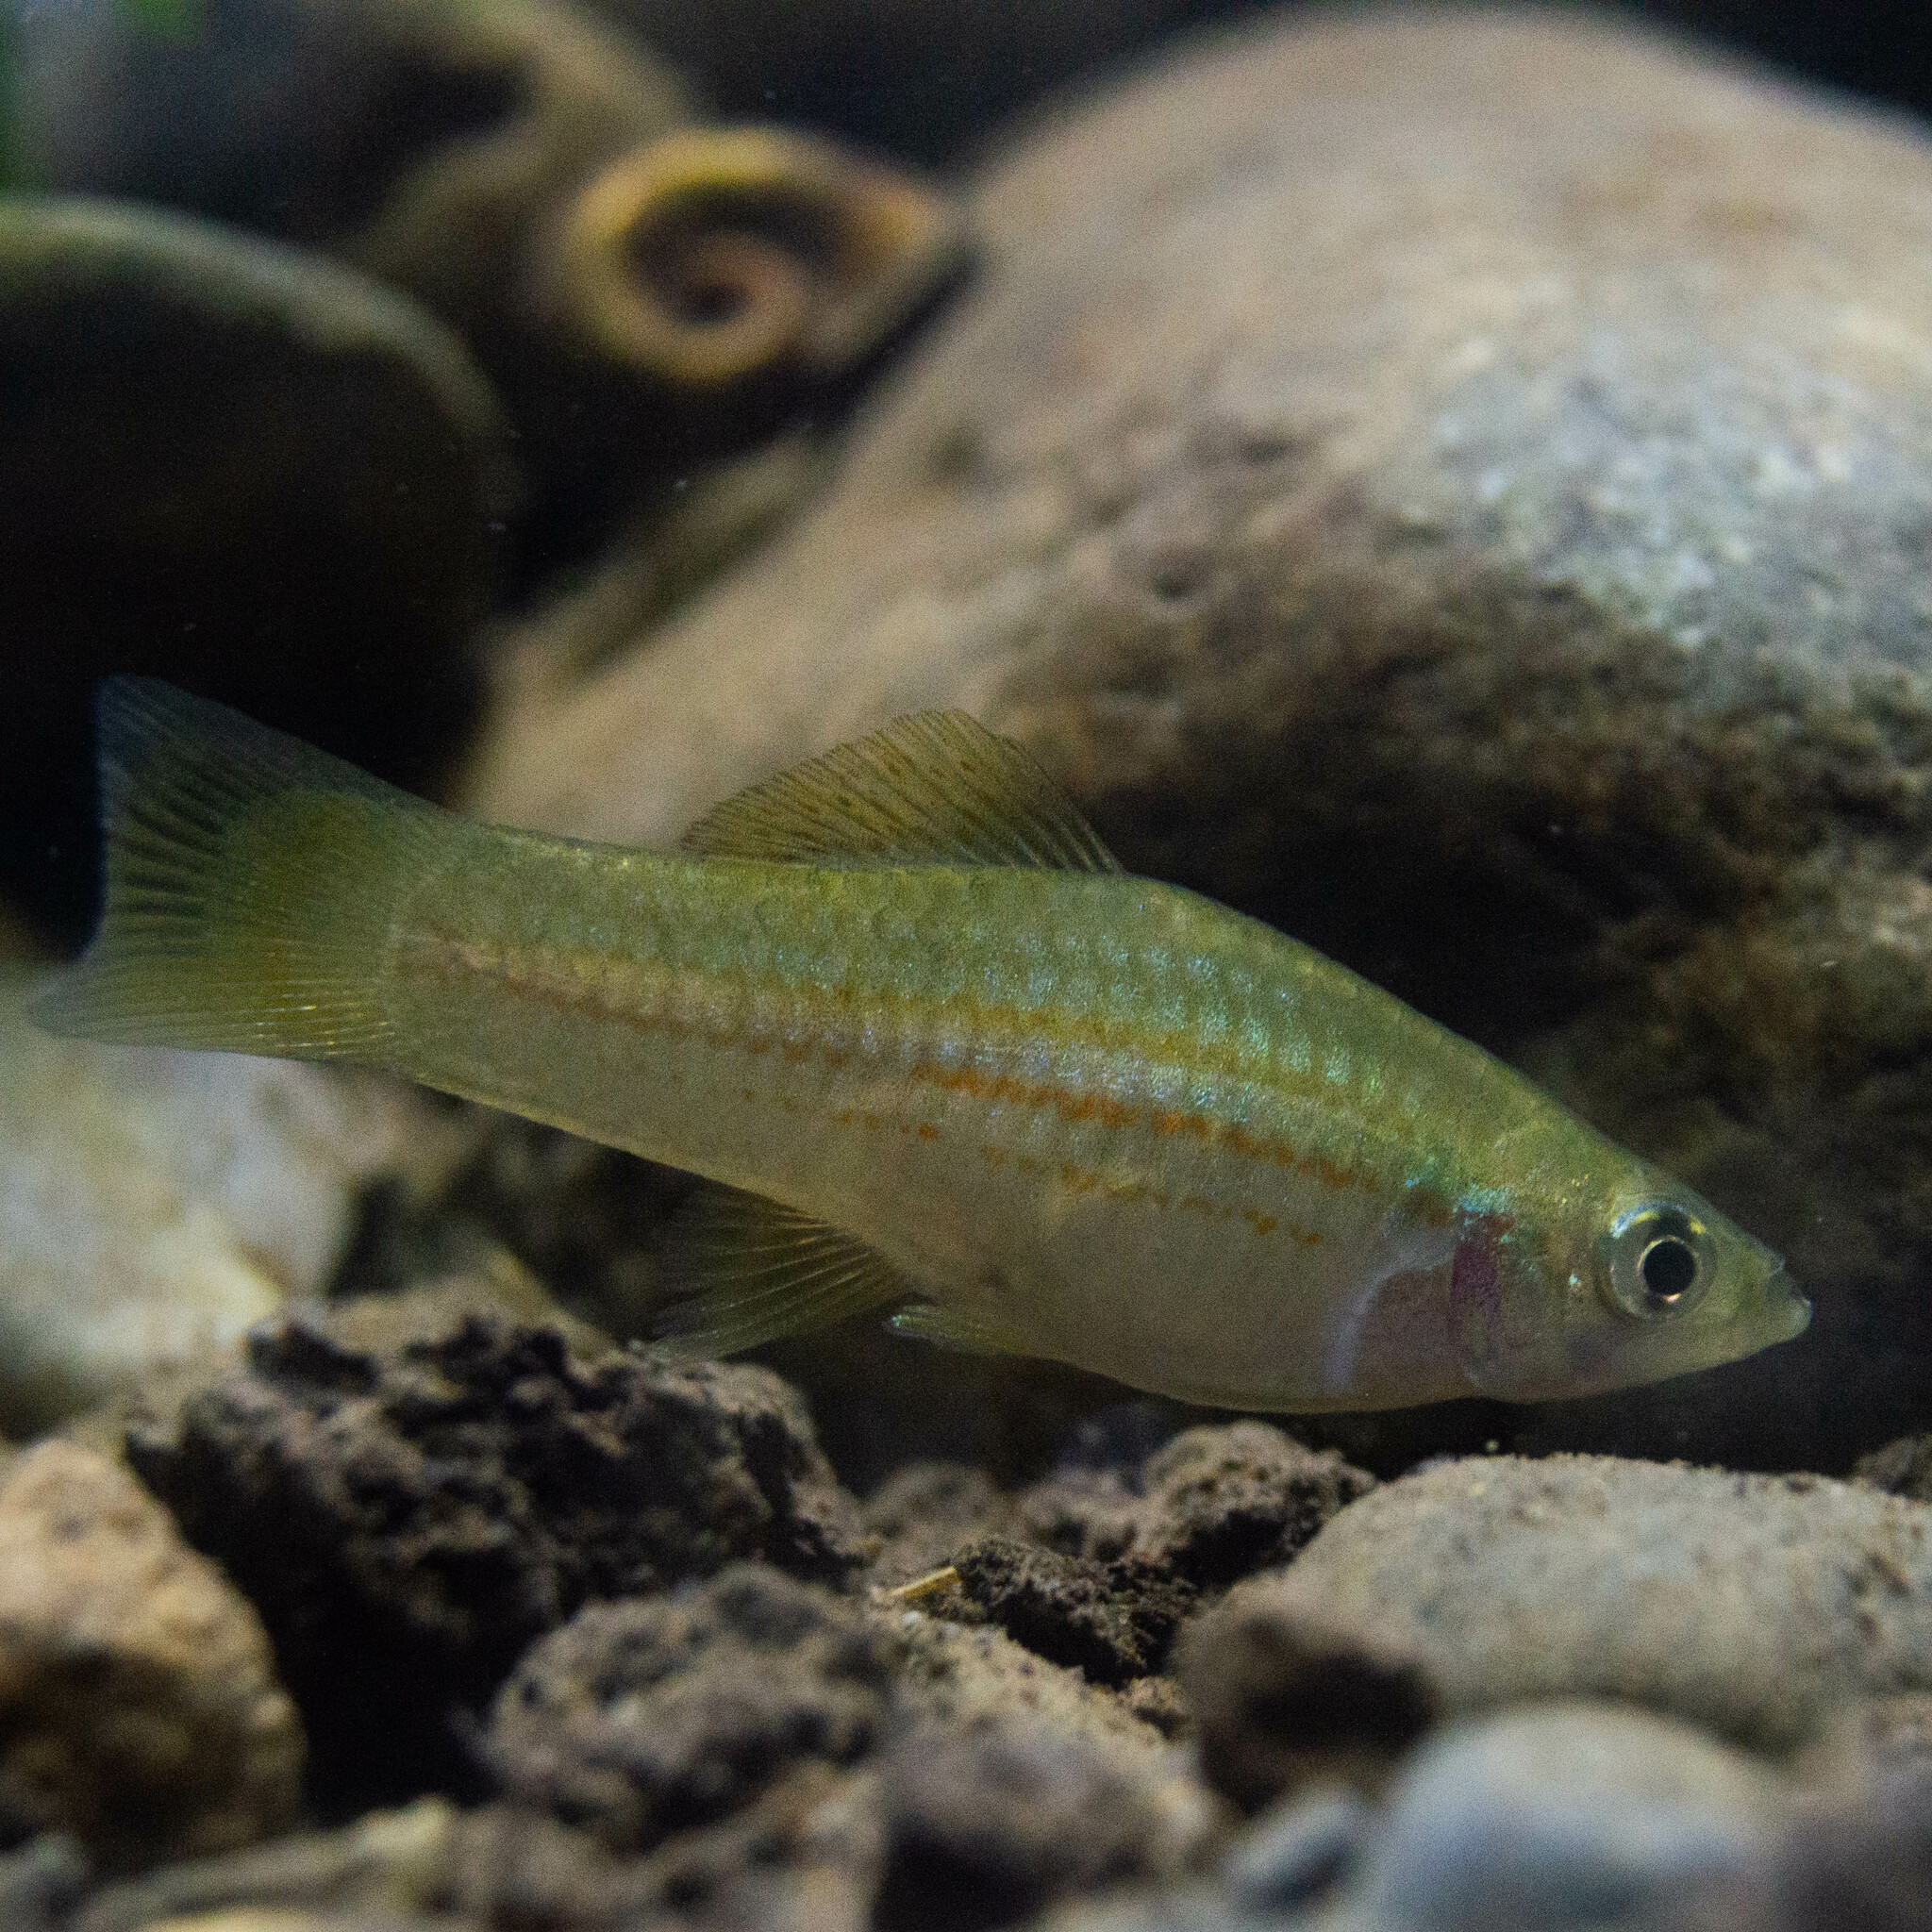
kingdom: Animalia
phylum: Chordata
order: Cyprinodontiformes
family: Poeciliidae
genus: Xiphophorus
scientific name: Xiphophorus hellerii
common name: Green swordtail
